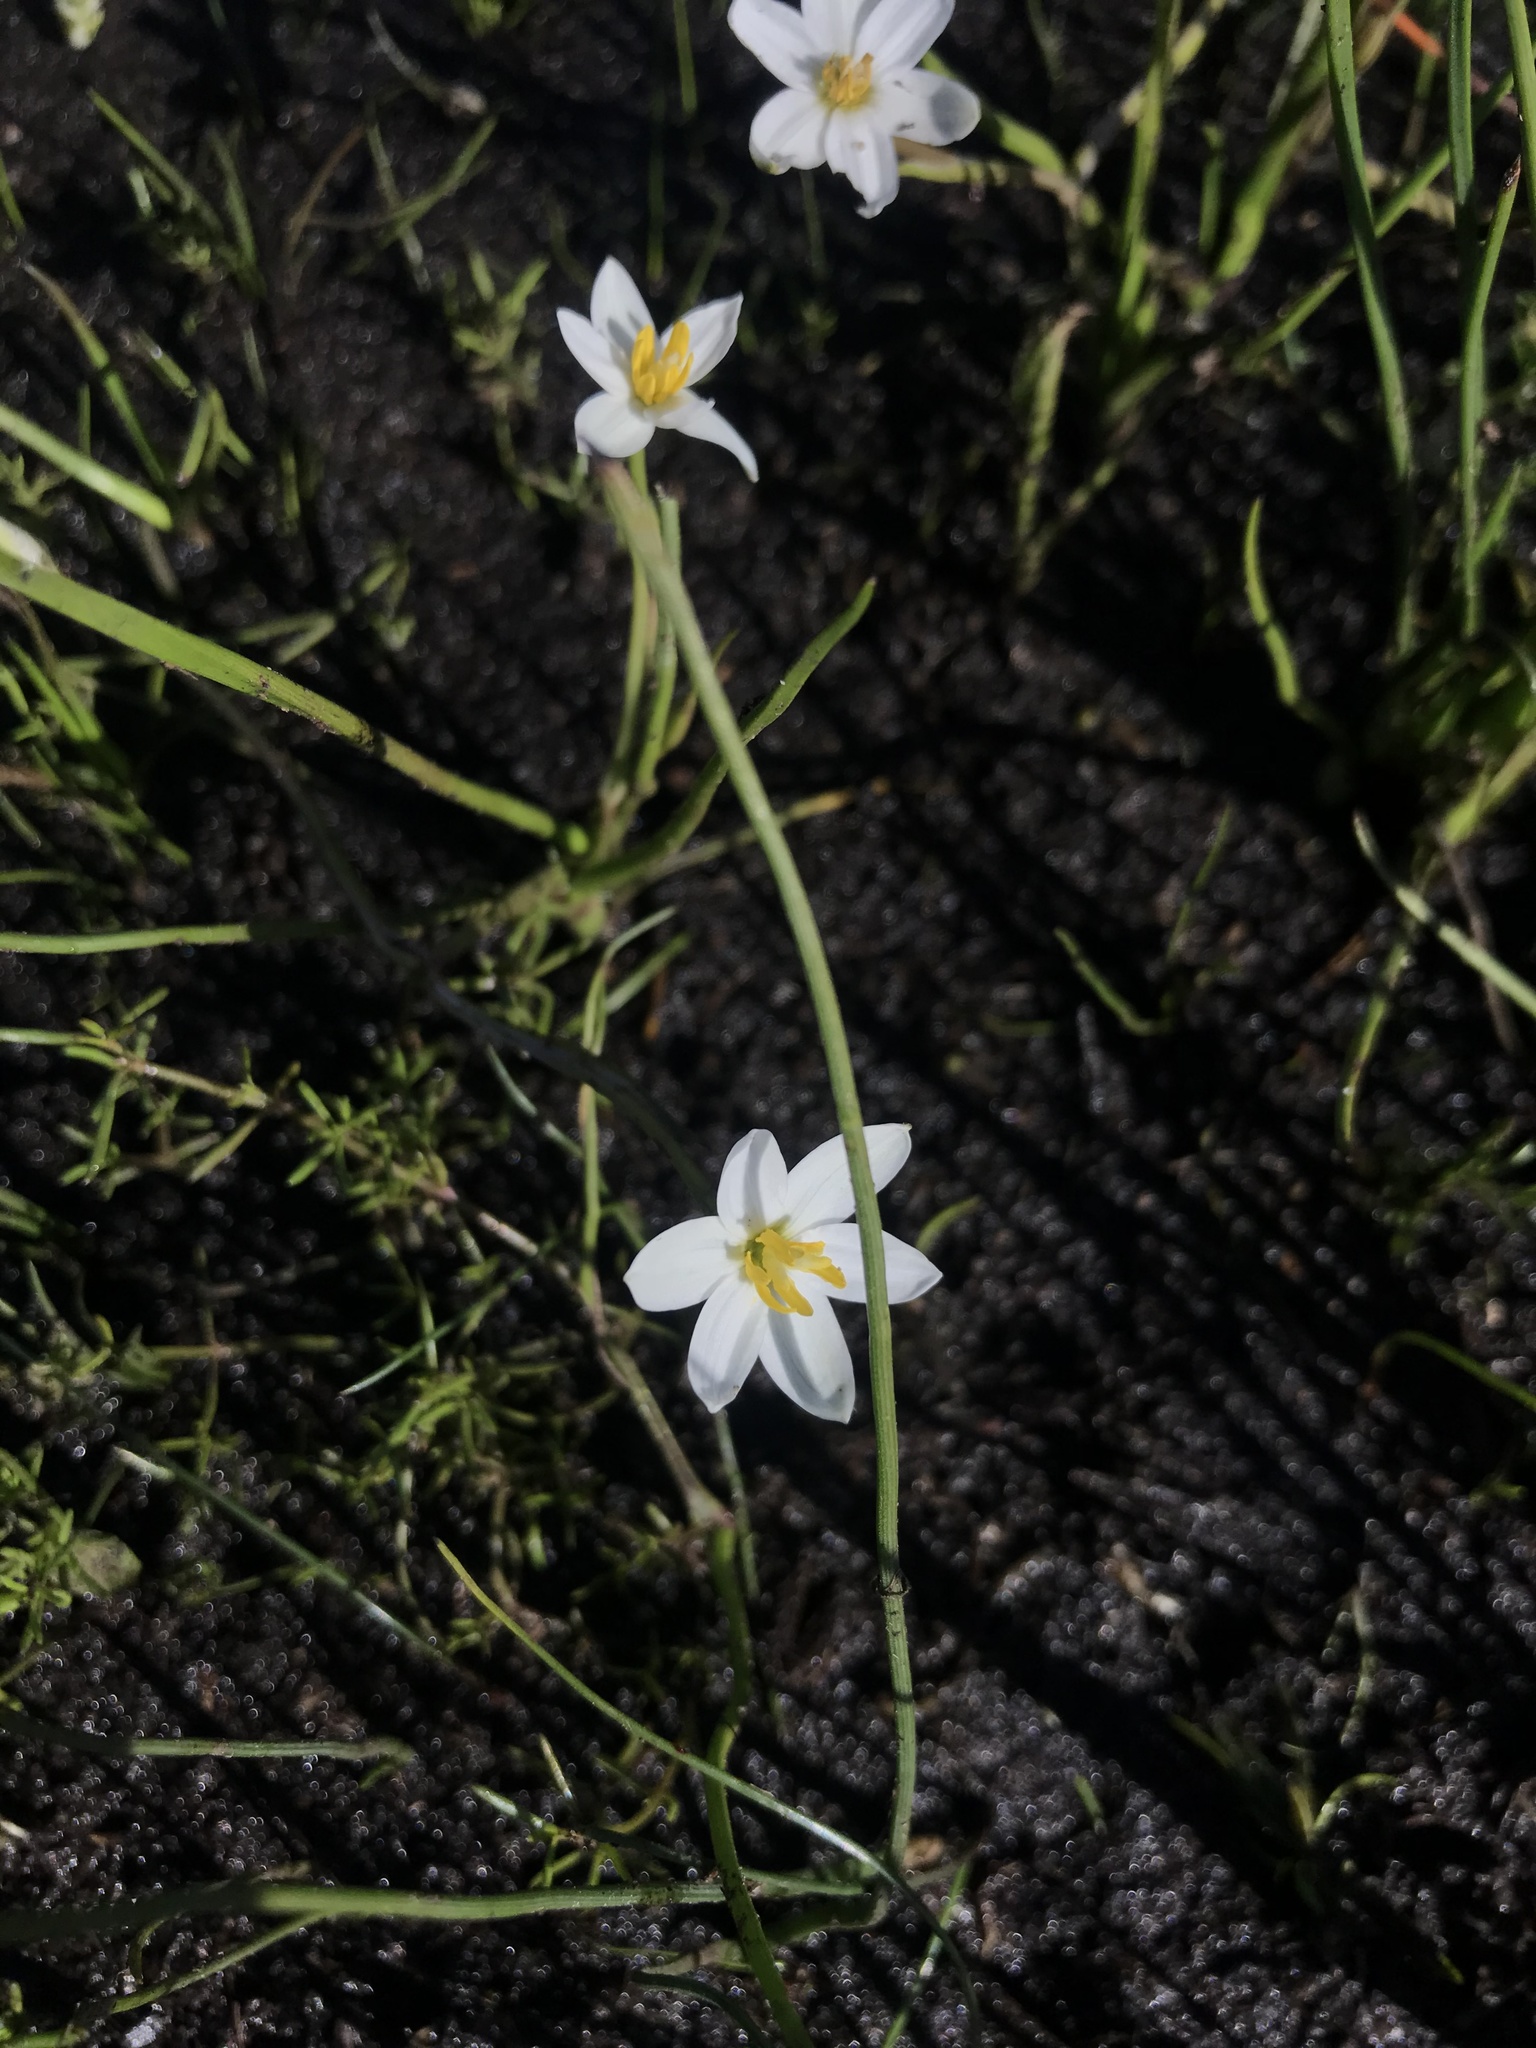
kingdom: Plantae
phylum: Tracheophyta
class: Liliopsida
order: Asparagales
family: Hypoxidaceae
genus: Pauridia
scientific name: Pauridia aquatica
